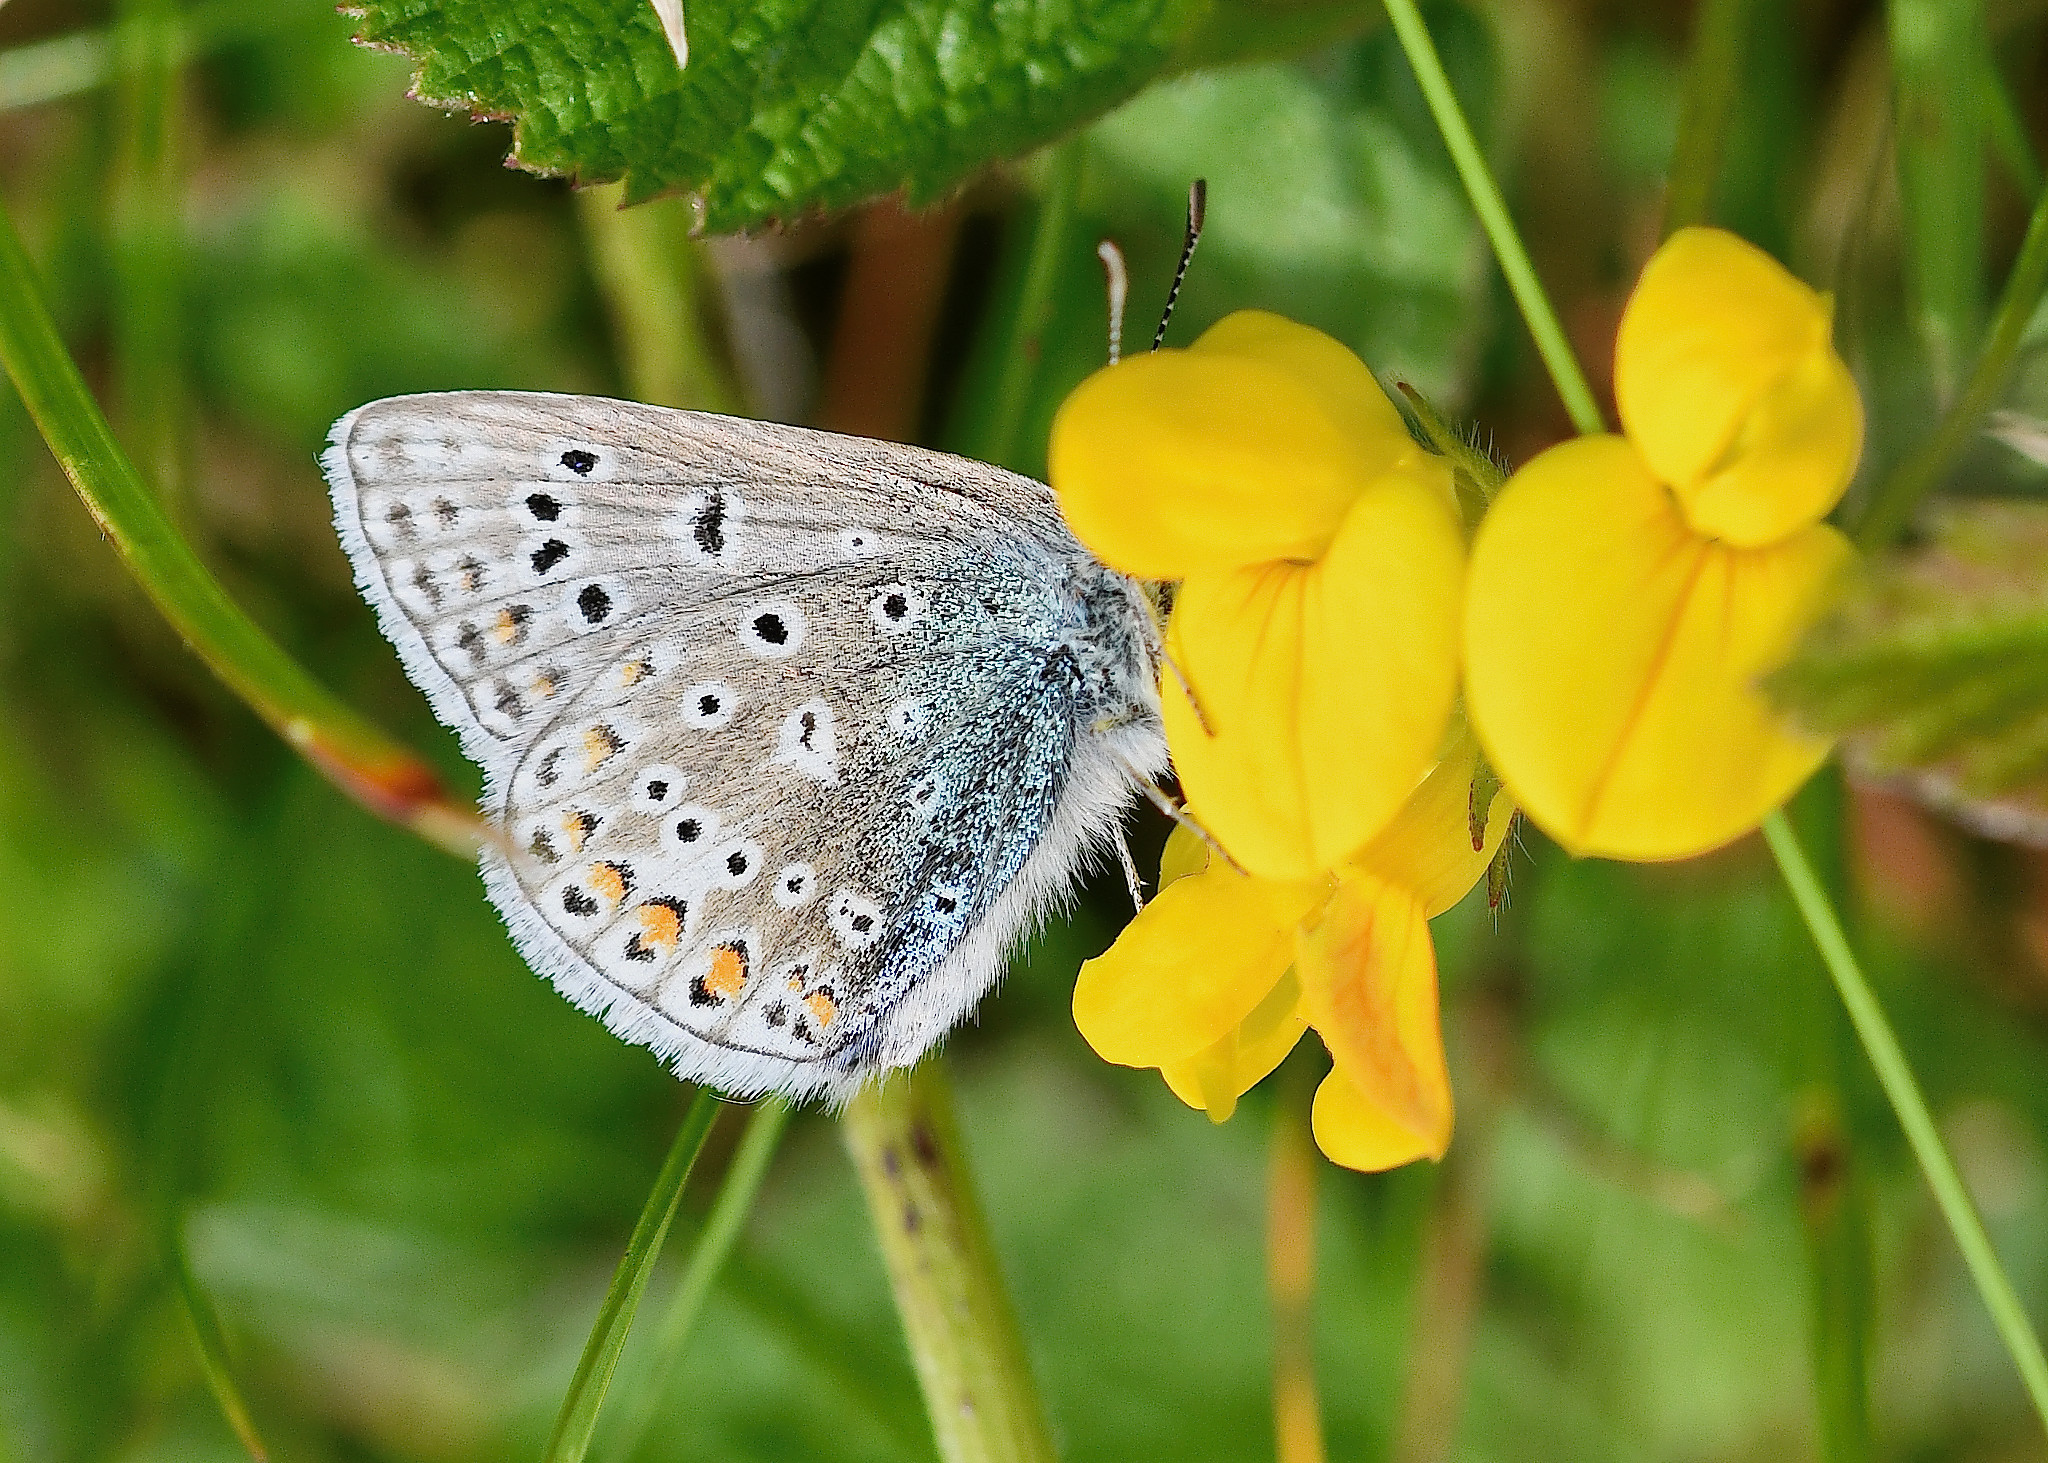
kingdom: Animalia
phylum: Arthropoda
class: Insecta
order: Lepidoptera
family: Lycaenidae
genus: Polyommatus
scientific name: Polyommatus icarus
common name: Common blue
